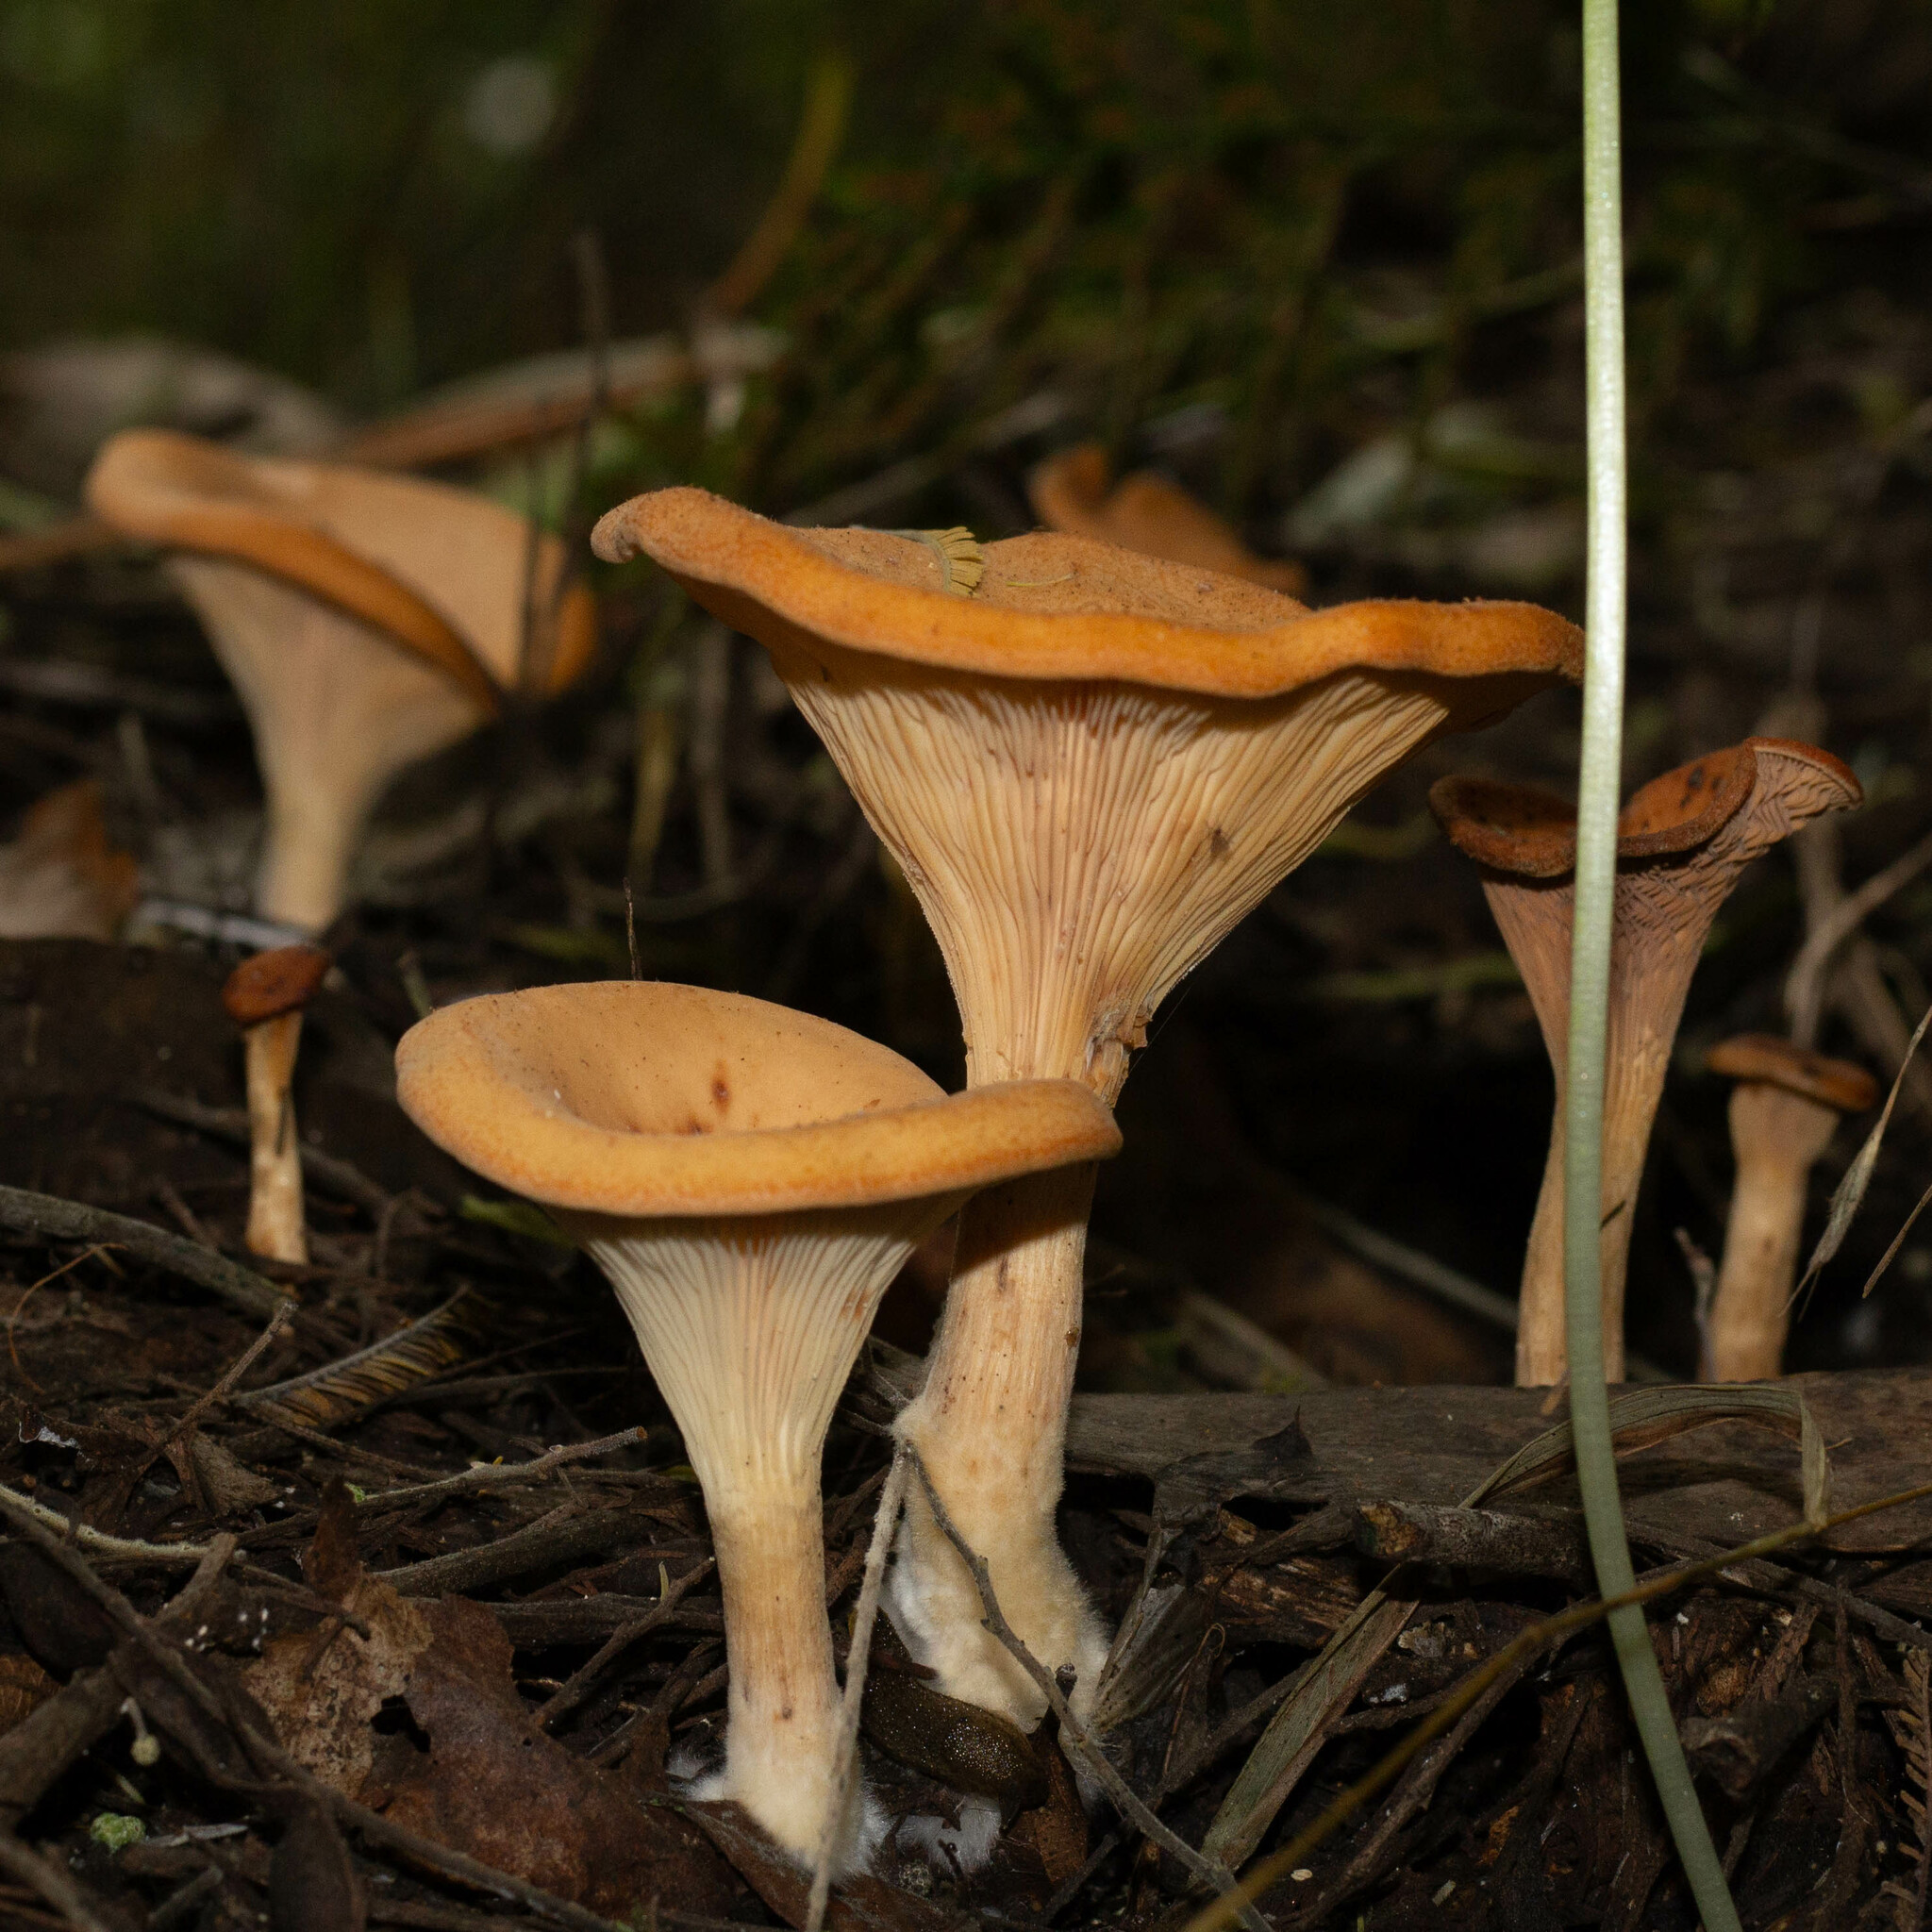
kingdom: Fungi
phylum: Basidiomycota
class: Agaricomycetes
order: Agaricales
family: Tricholomataceae
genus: Infundibulicybe
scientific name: Infundibulicybe gibba
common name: Common funnel
